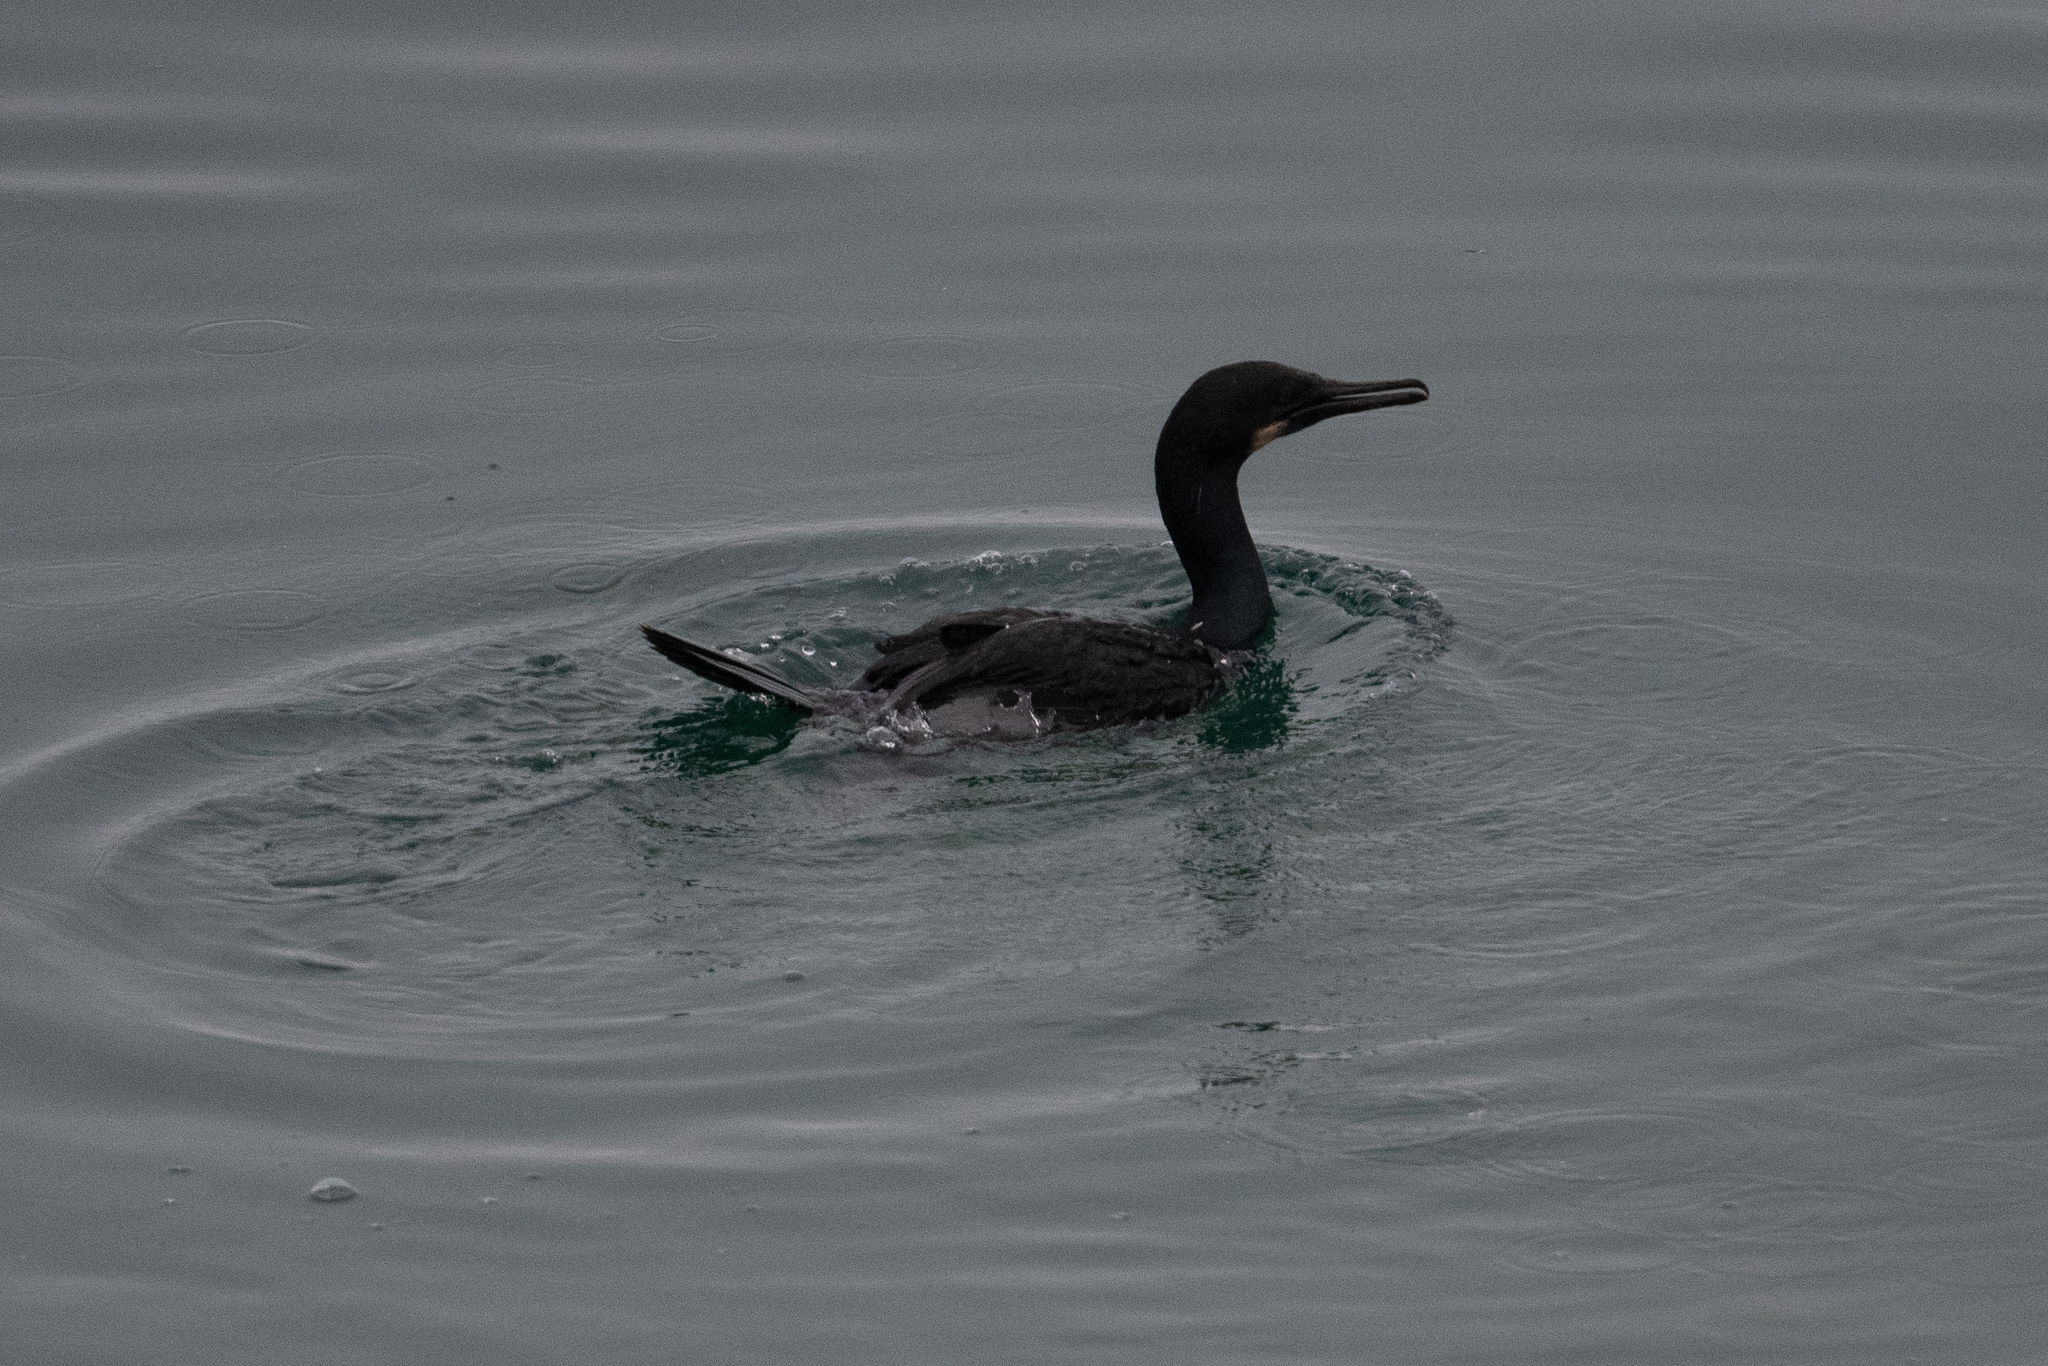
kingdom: Animalia
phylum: Chordata
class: Aves
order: Suliformes
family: Phalacrocoracidae
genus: Urile
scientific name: Urile penicillatus
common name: Brandt's cormorant
